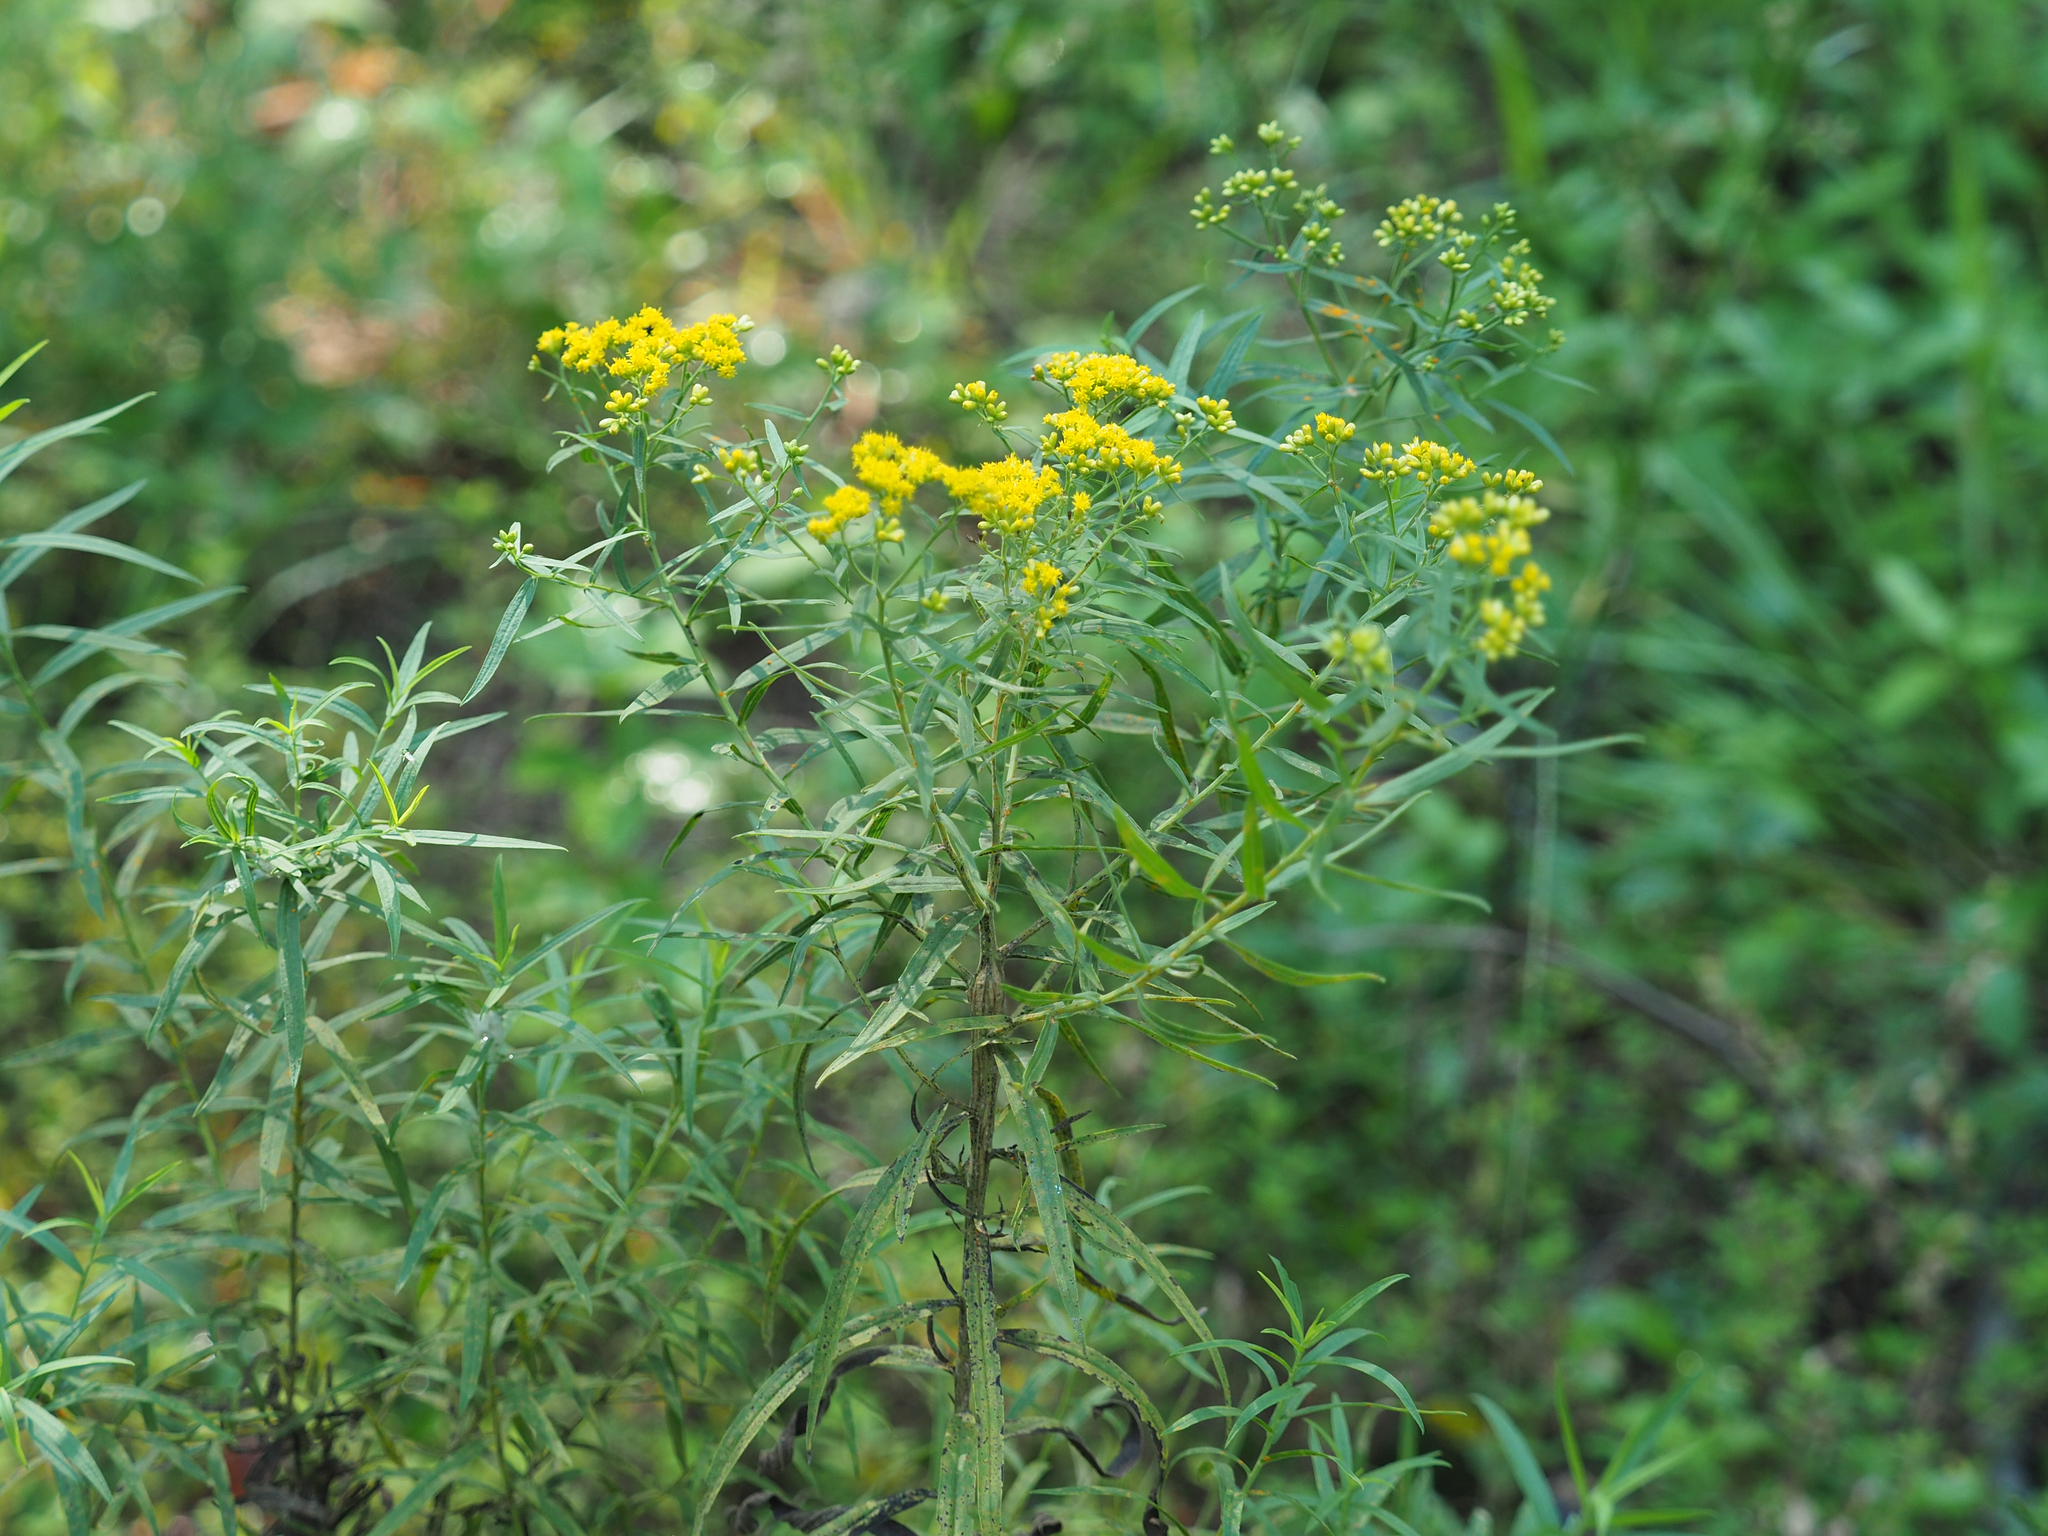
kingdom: Plantae
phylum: Tracheophyta
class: Magnoliopsida
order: Asterales
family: Asteraceae
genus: Euthamia
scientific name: Euthamia graminifolia
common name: Common goldentop
